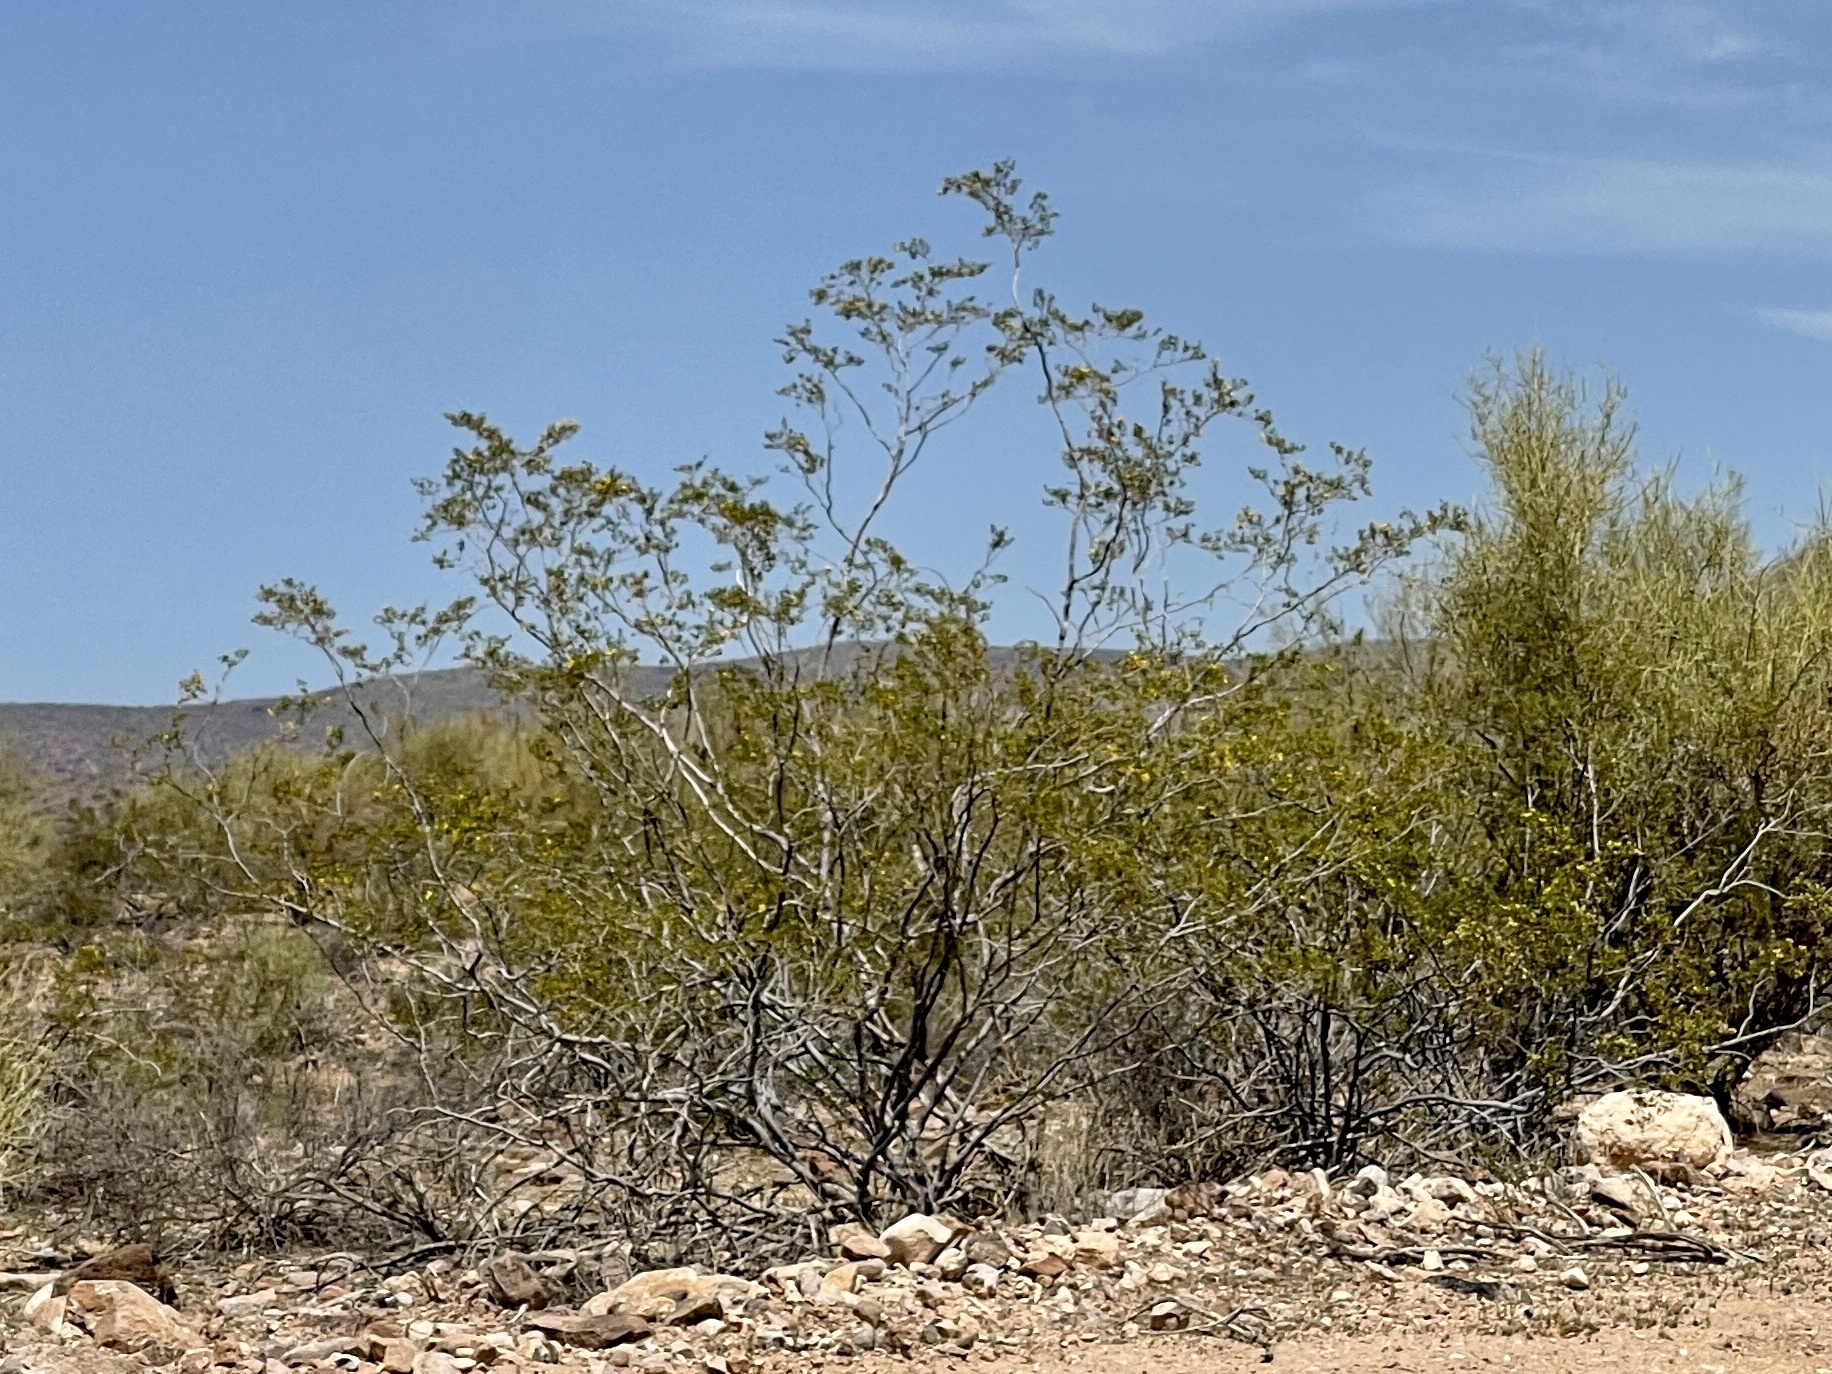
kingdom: Plantae
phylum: Tracheophyta
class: Magnoliopsida
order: Zygophyllales
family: Zygophyllaceae
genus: Larrea
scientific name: Larrea tridentata
